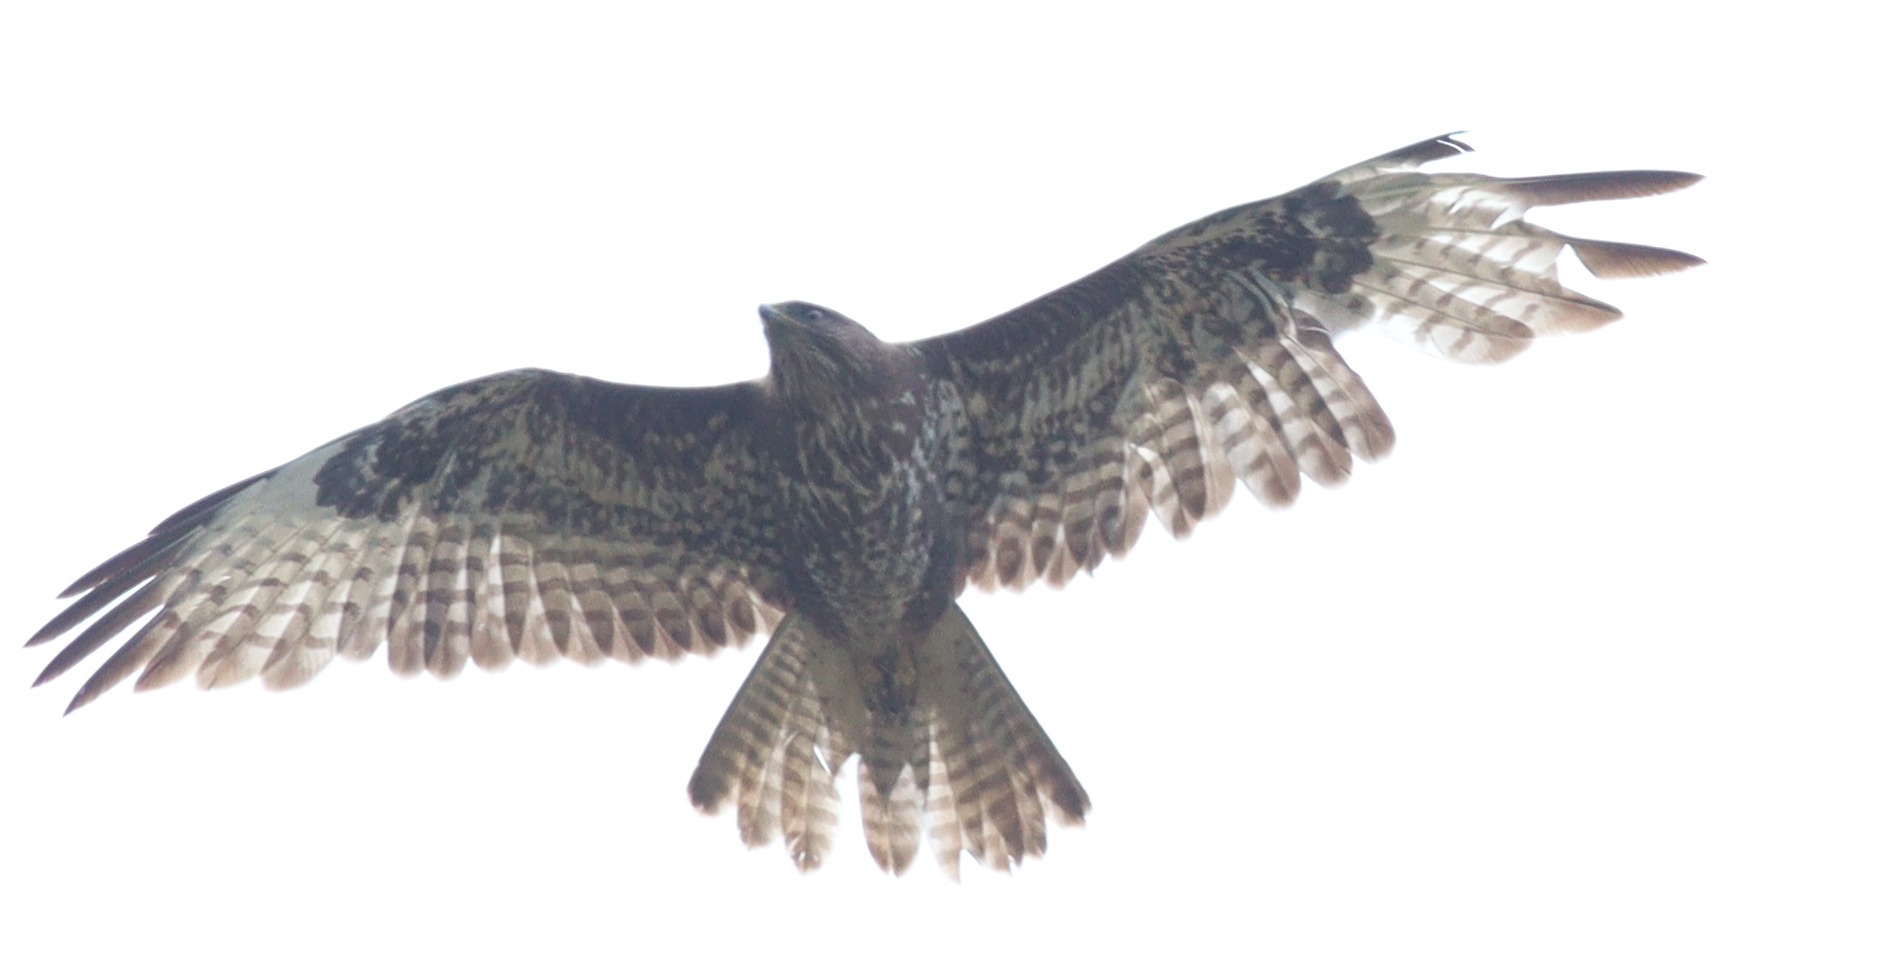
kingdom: Animalia
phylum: Chordata
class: Aves
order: Accipitriformes
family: Accipitridae
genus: Buteo
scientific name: Buteo buteo
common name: Common buzzard
